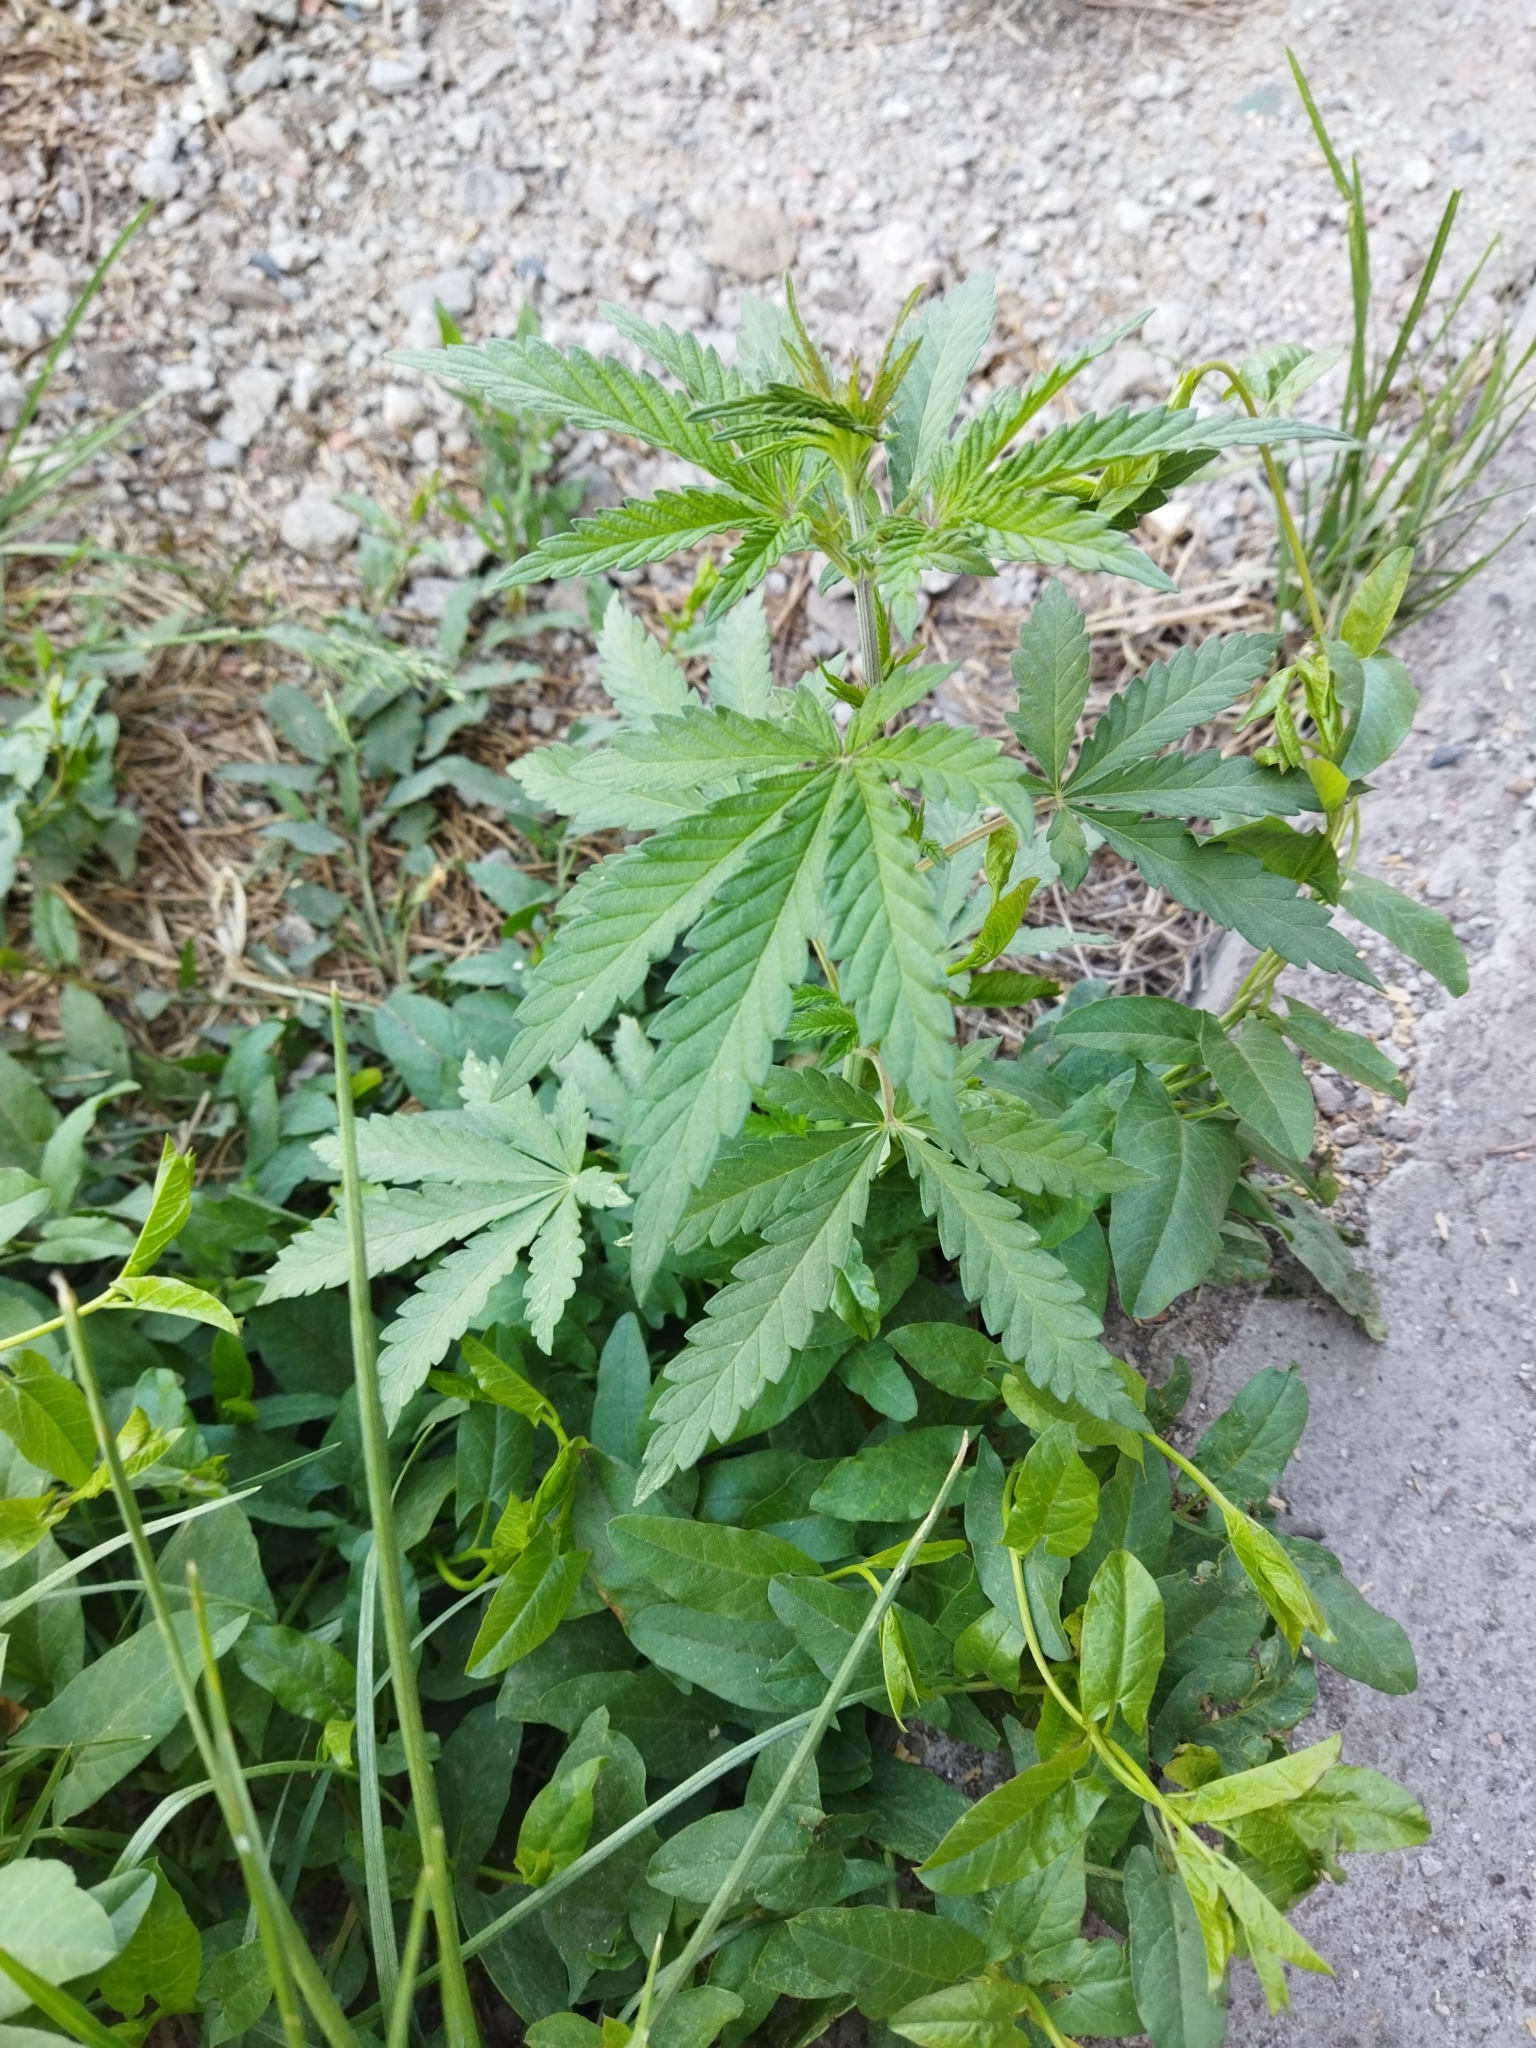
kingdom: Plantae
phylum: Tracheophyta
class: Magnoliopsida
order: Rosales
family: Cannabaceae
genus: Cannabis
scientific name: Cannabis sativa
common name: Hemp
